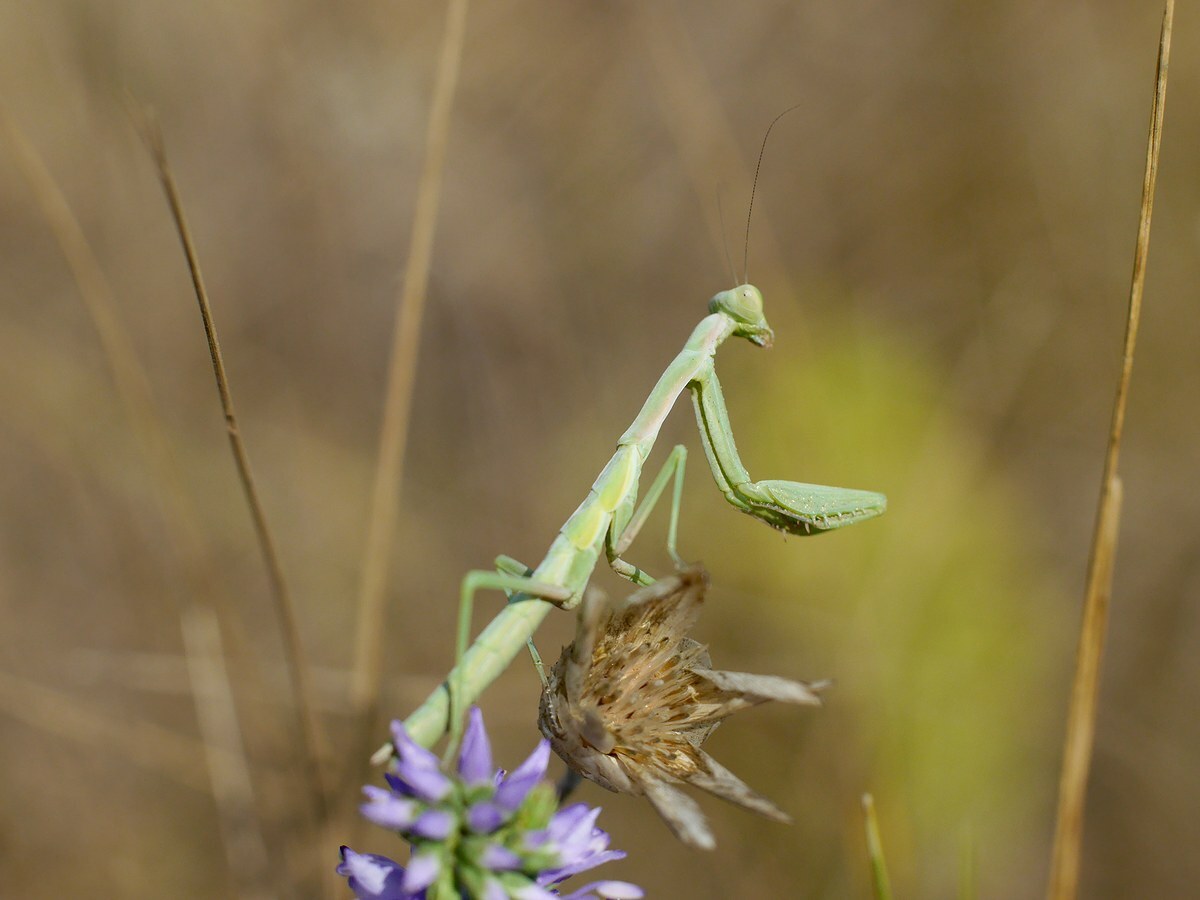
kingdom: Animalia
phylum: Arthropoda
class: Insecta
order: Mantodea
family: Eremiaphilidae
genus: Iris
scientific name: Iris polystictica
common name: Dot-winged mantis
